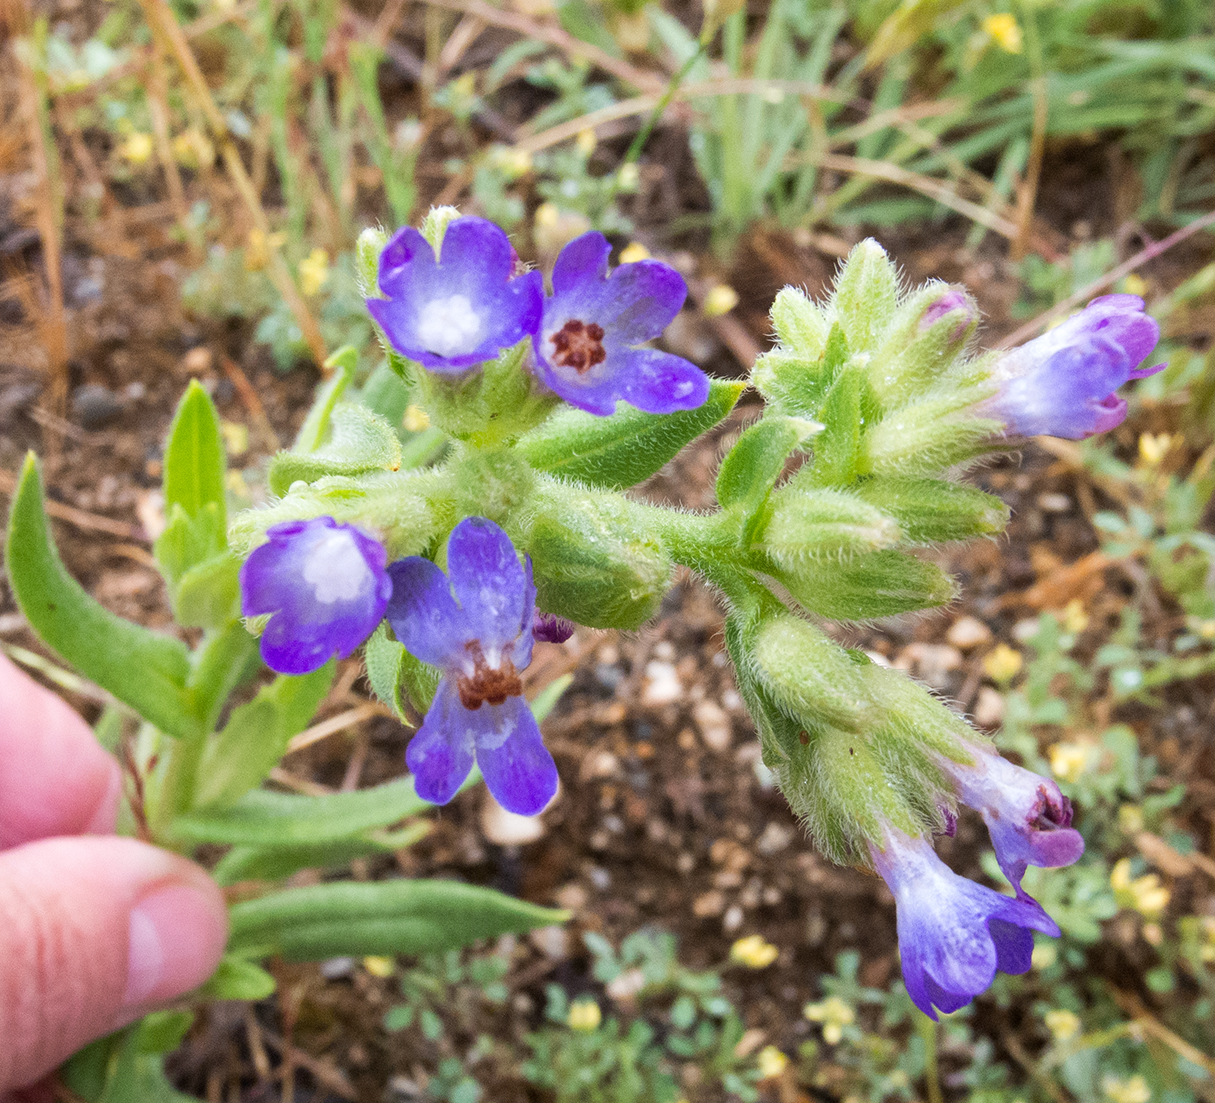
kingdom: Plantae
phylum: Tracheophyta
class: Magnoliopsida
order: Boraginales
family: Boraginaceae
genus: Anchusa
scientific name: Anchusa officinalis
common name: Alkanet
